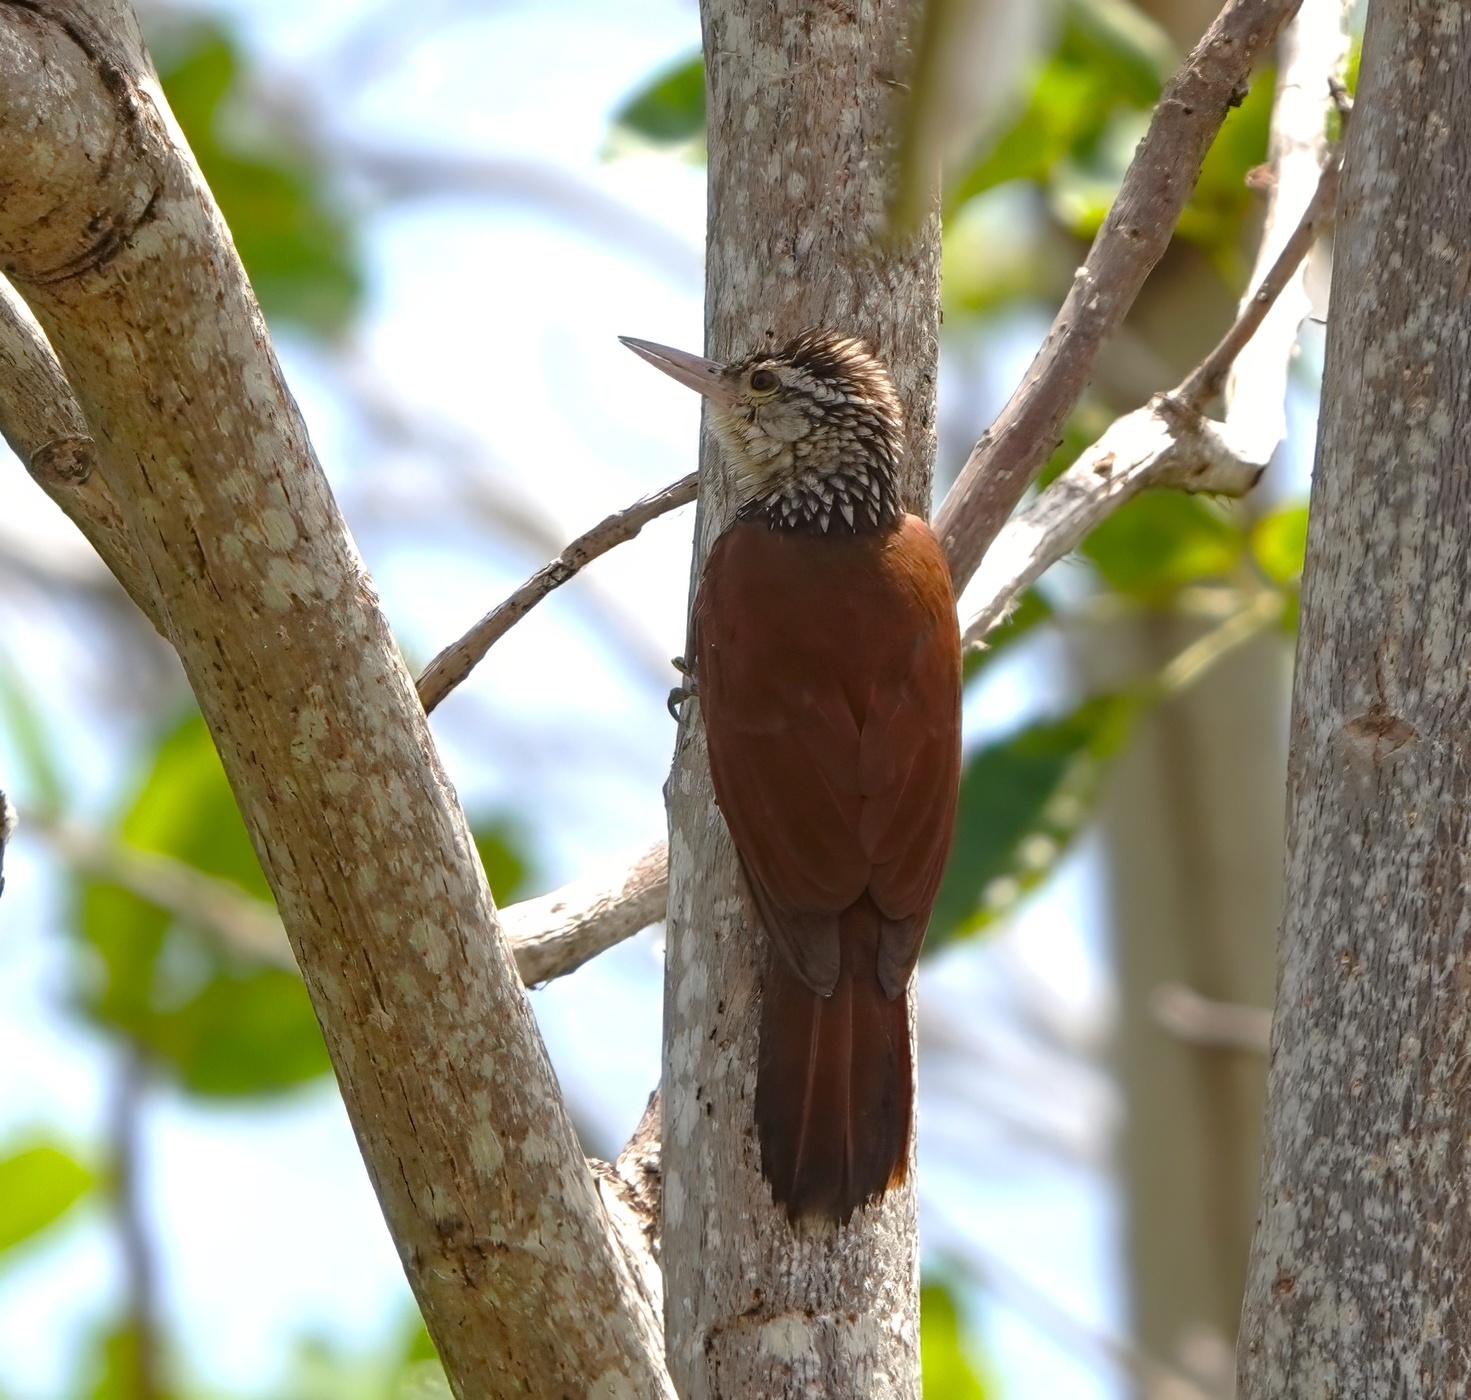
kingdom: Animalia
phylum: Chordata
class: Aves
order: Passeriformes
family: Furnariidae
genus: Xiphorhynchus
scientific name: Xiphorhynchus picus
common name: Straight-billed woodcreeper
